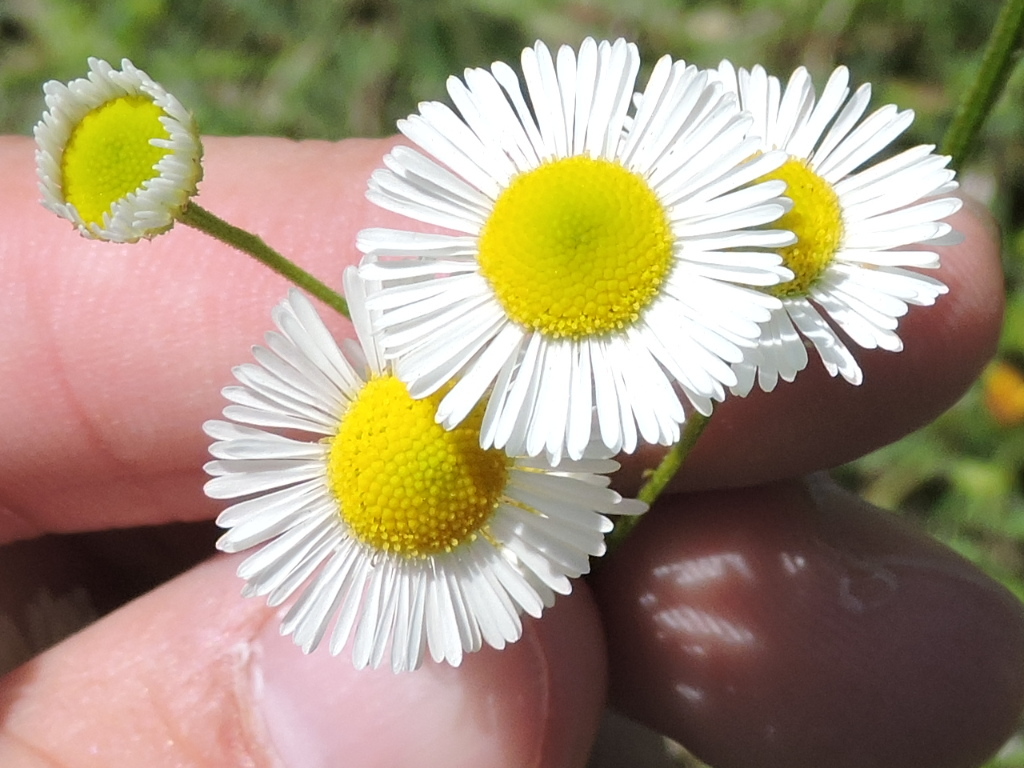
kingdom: Plantae
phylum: Tracheophyta
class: Magnoliopsida
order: Asterales
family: Asteraceae
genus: Erigeron
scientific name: Erigeron strigosus
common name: Common eastern fleabane
